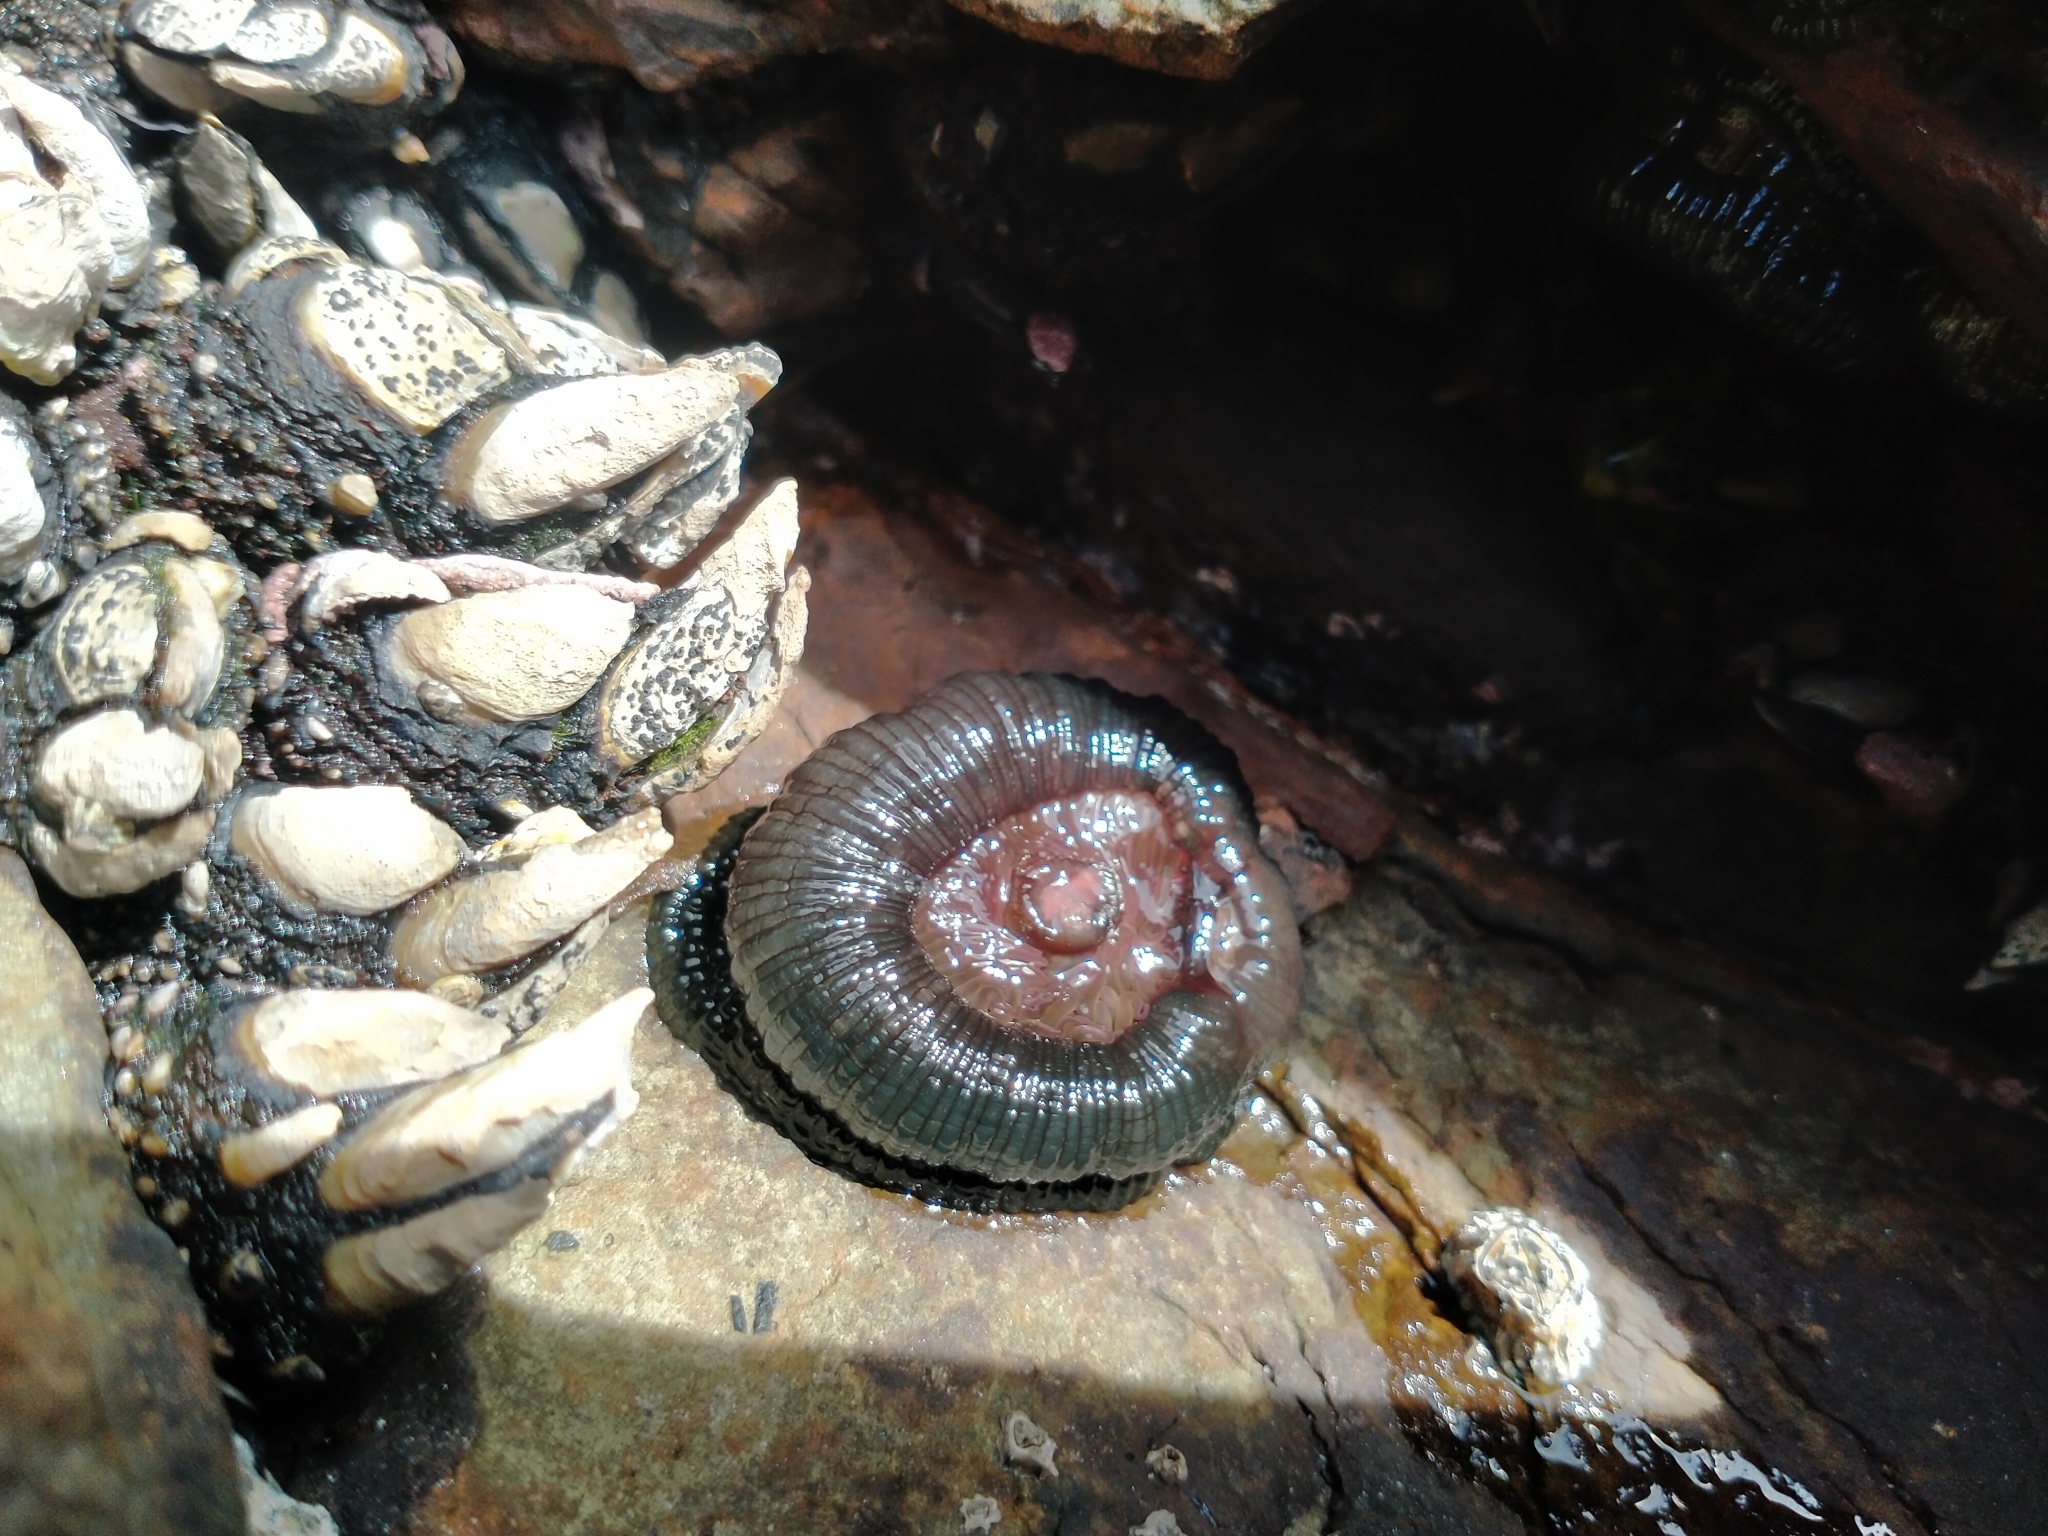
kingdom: Animalia
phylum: Cnidaria
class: Anthozoa
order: Actiniaria
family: Actiniidae
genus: Actinia
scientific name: Actinia tenebrosa
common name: Waratah anemone
